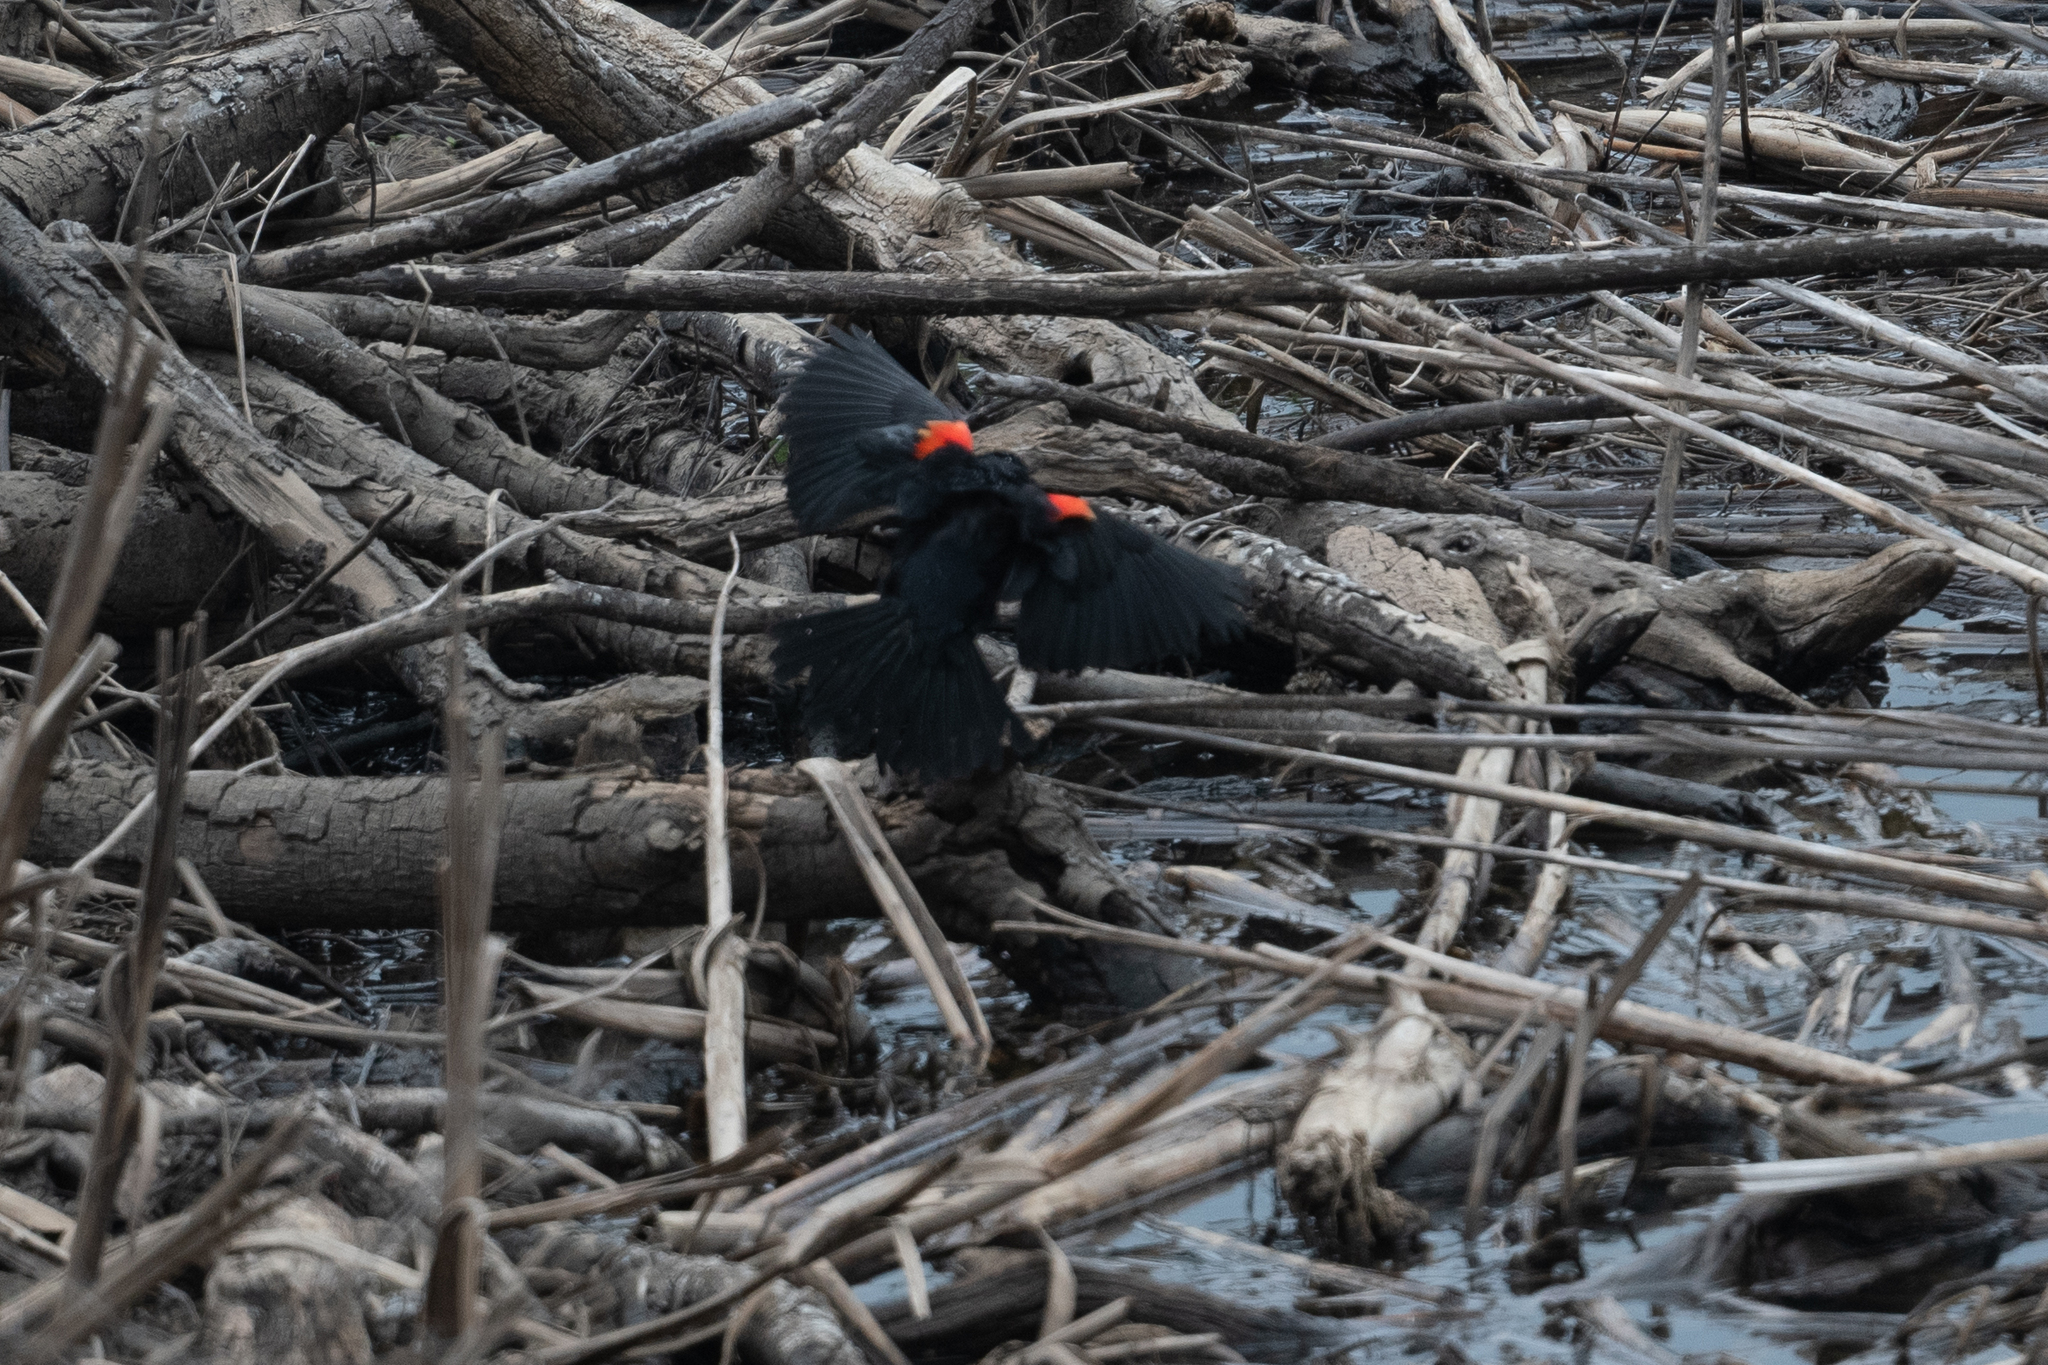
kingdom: Animalia
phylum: Chordata
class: Aves
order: Passeriformes
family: Icteridae
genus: Agelaius
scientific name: Agelaius phoeniceus
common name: Red-winged blackbird
